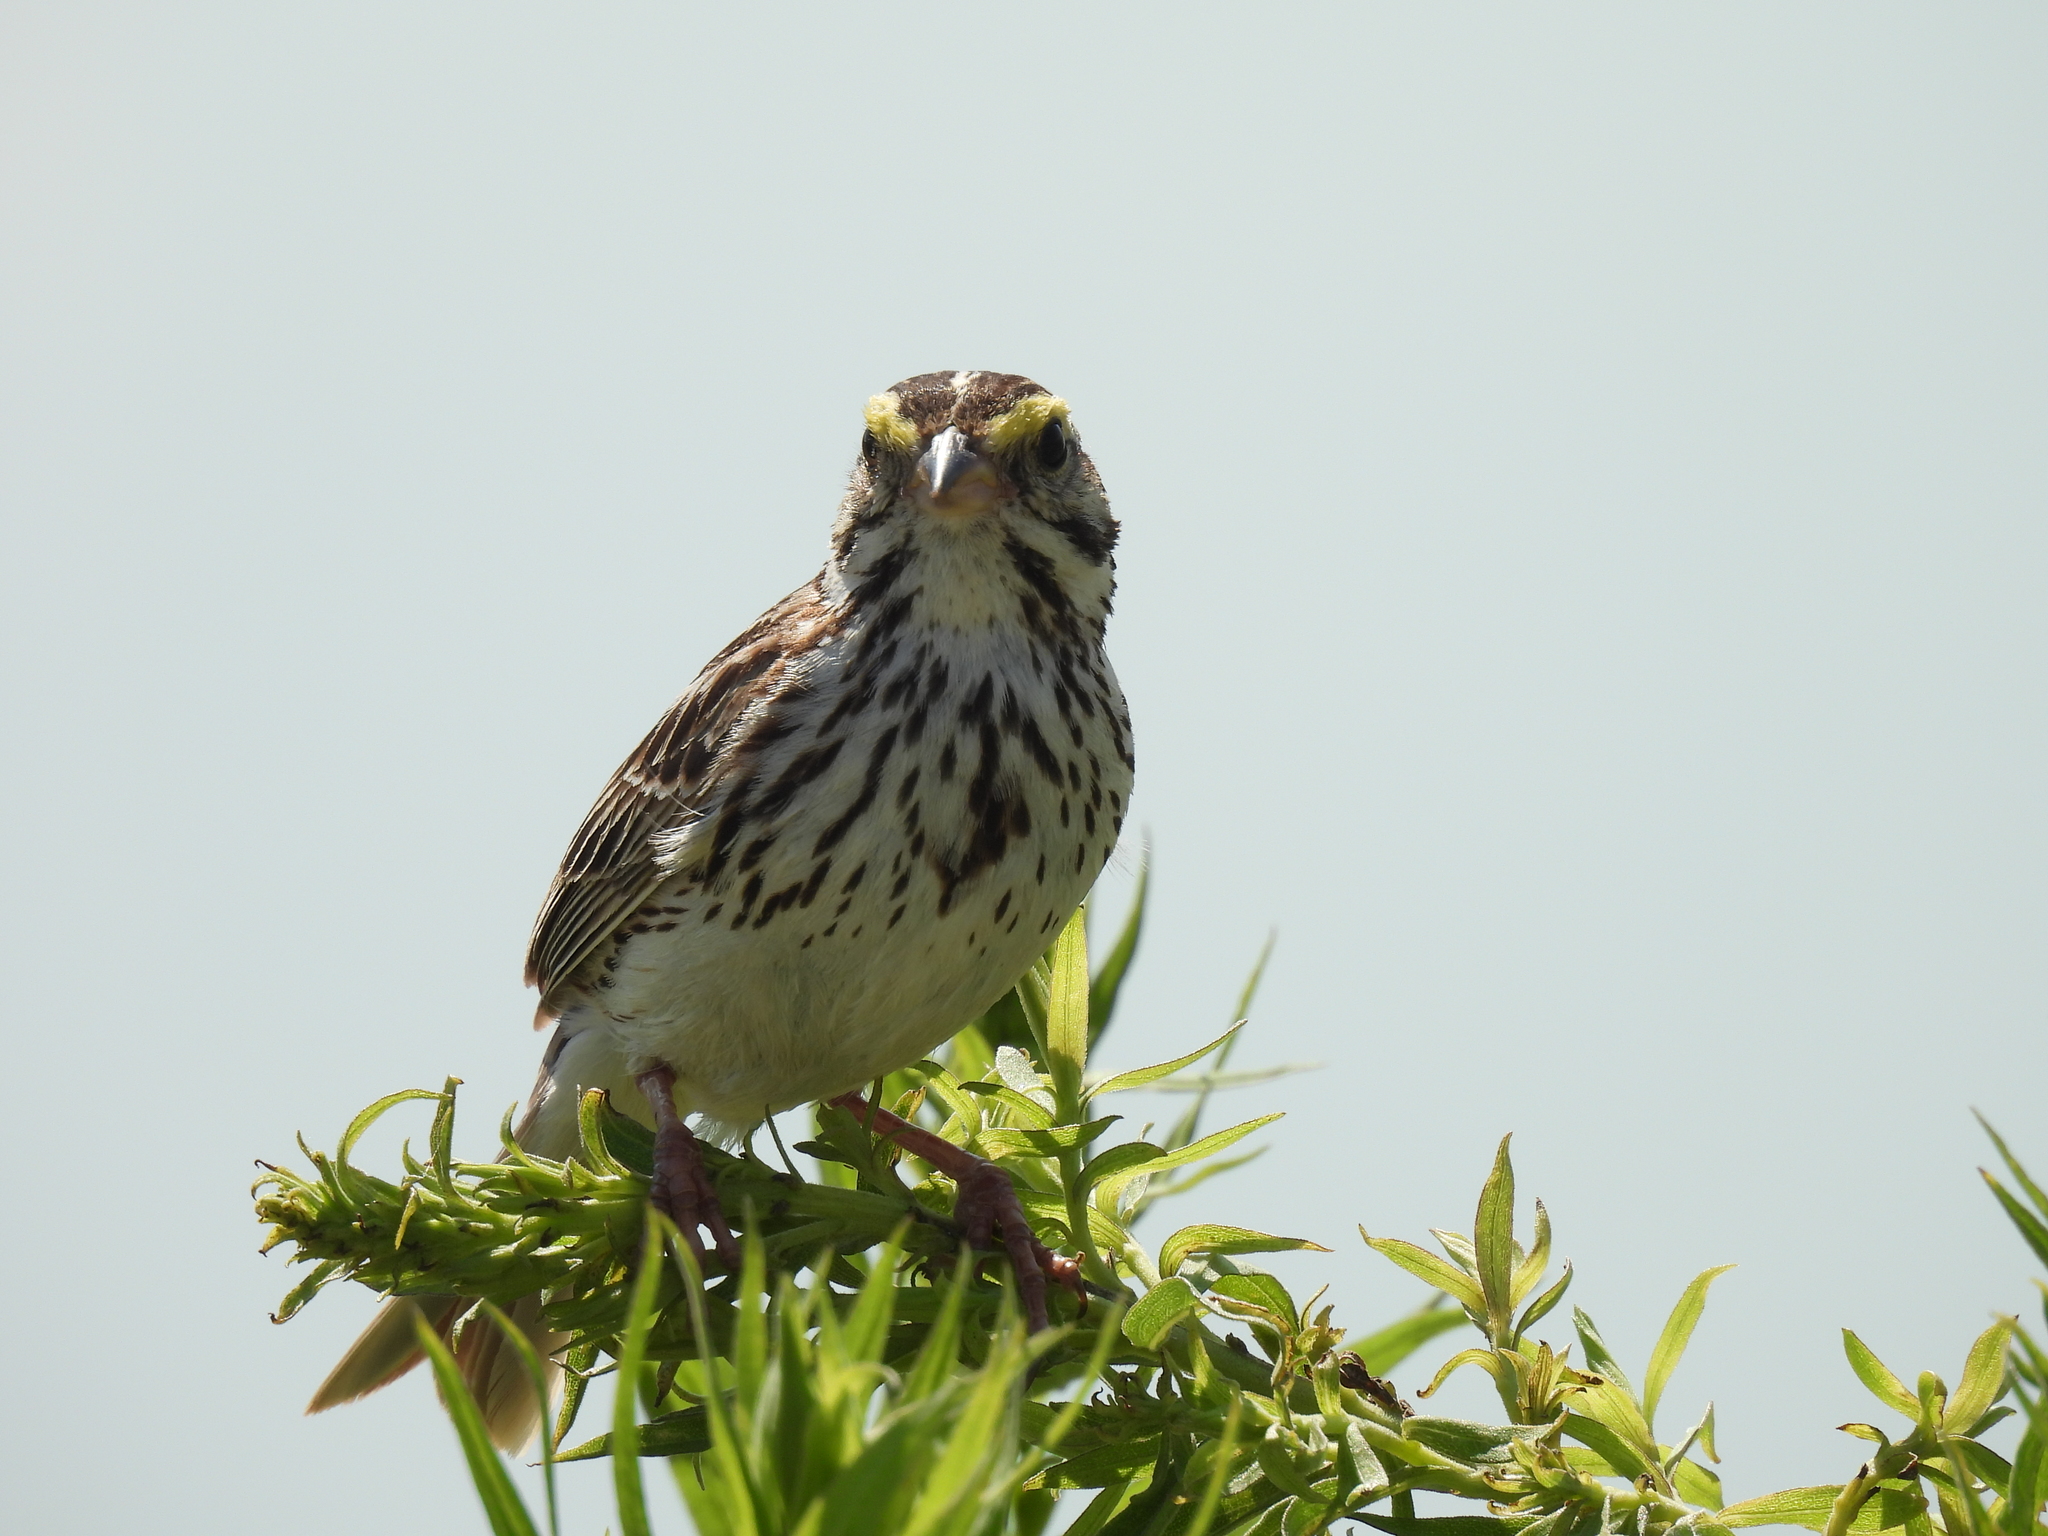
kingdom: Animalia
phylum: Chordata
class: Aves
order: Passeriformes
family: Passerellidae
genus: Passerculus
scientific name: Passerculus sandwichensis
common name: Savannah sparrow
